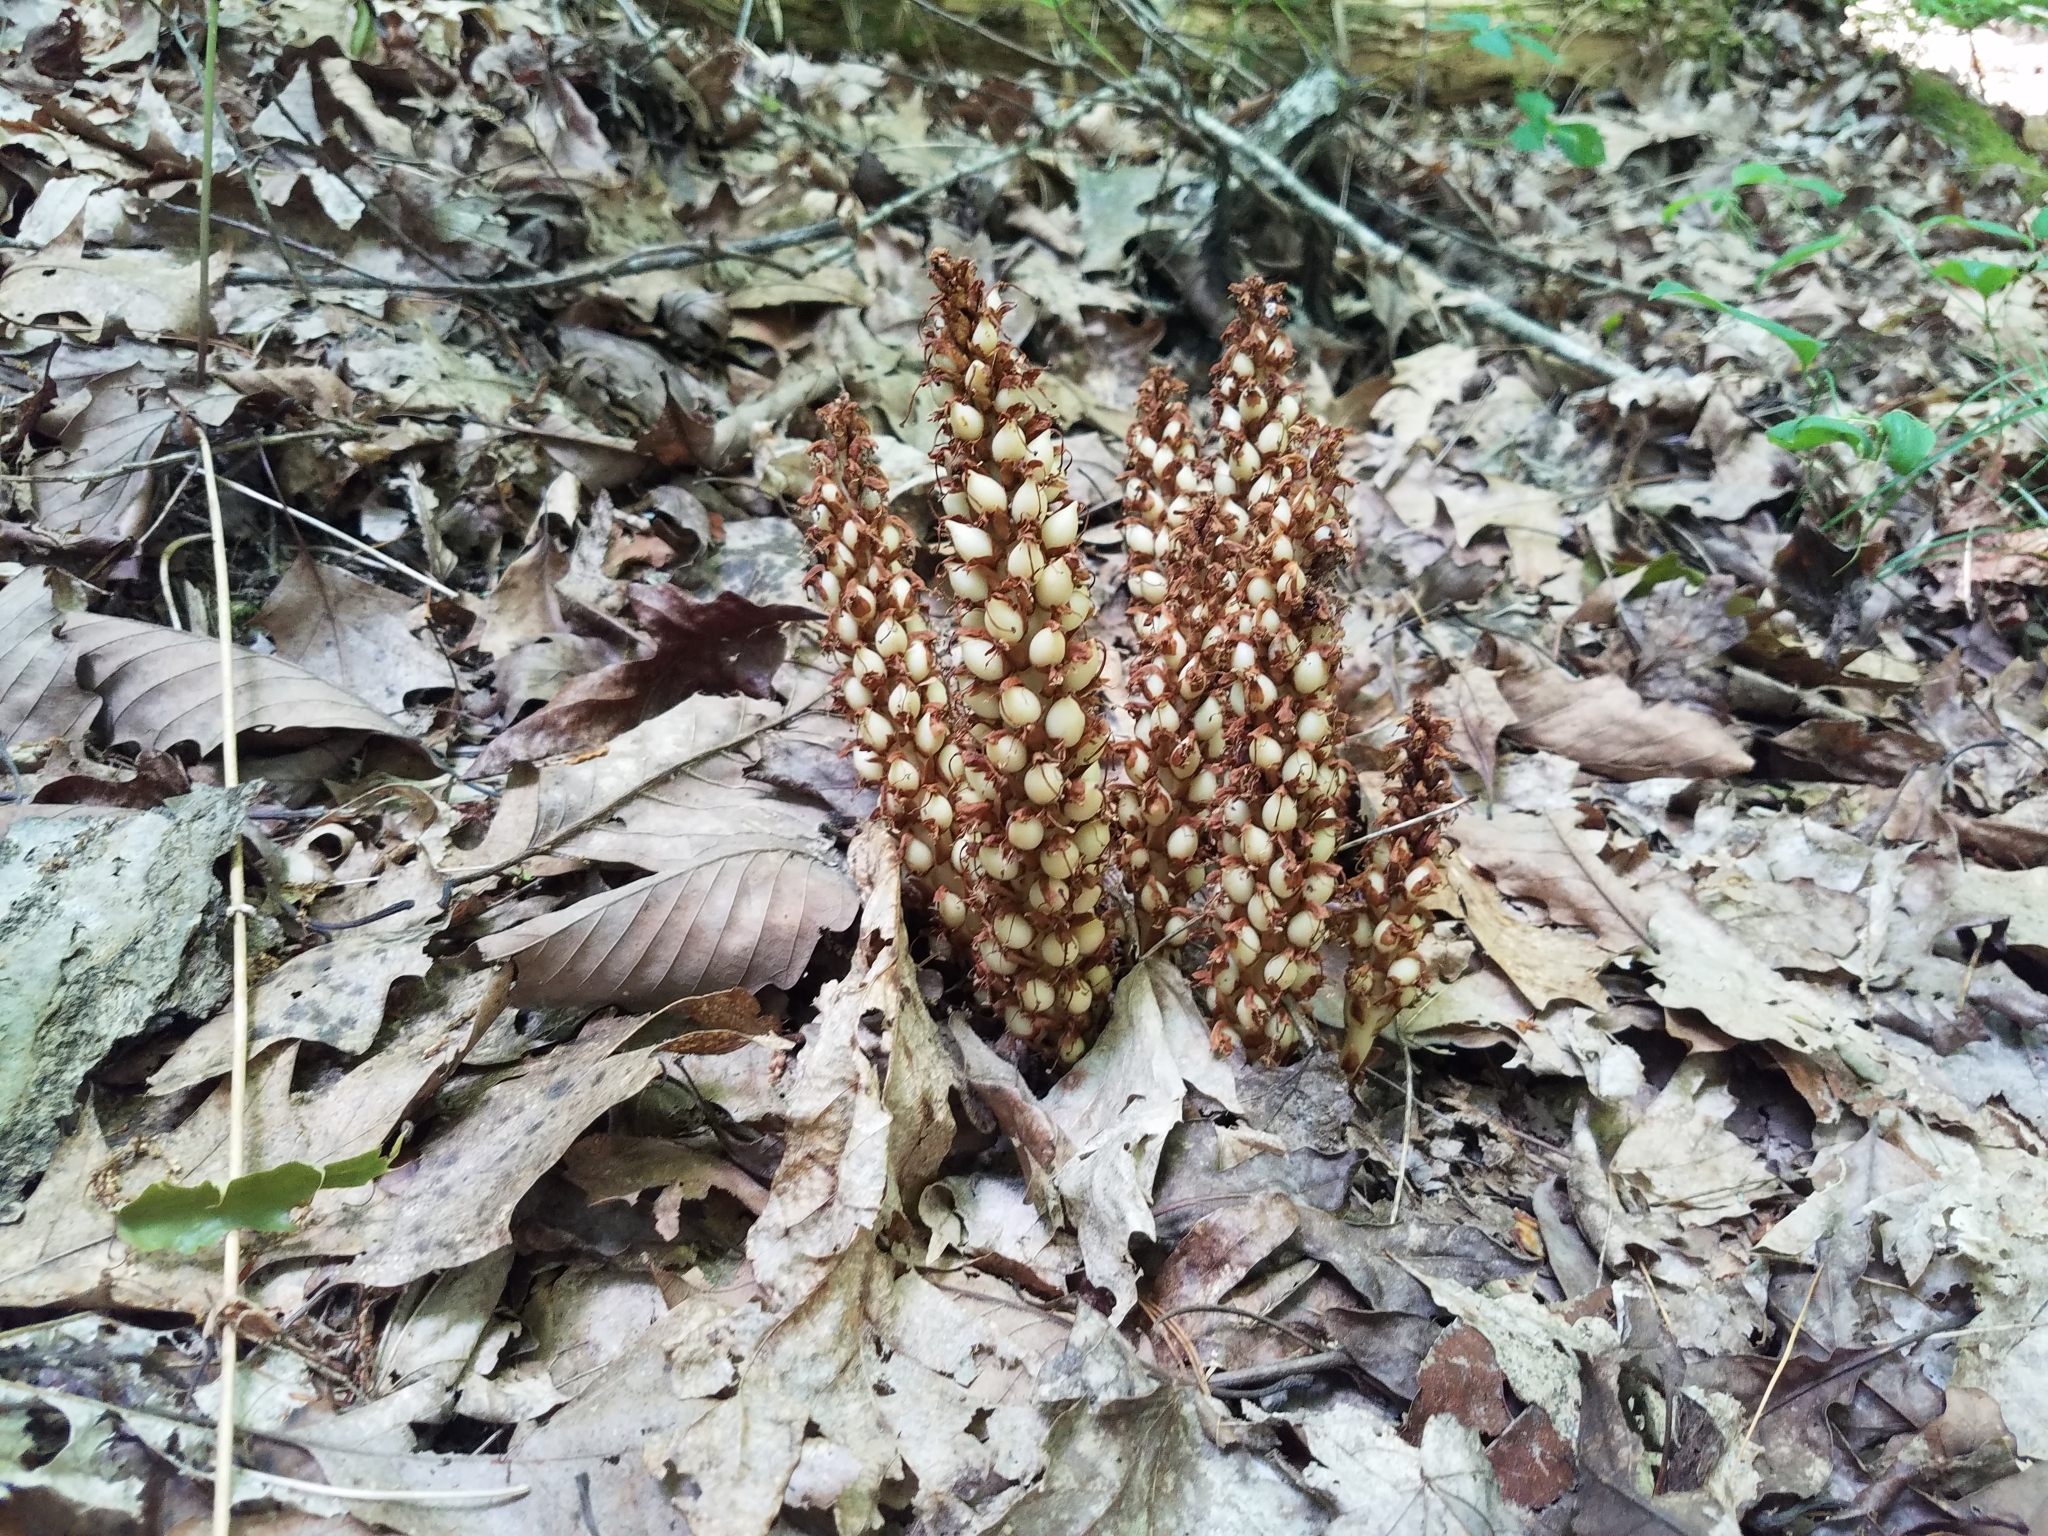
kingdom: Plantae
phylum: Tracheophyta
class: Magnoliopsida
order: Lamiales
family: Orobanchaceae
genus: Conopholis
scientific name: Conopholis americana
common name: American cancer-root
